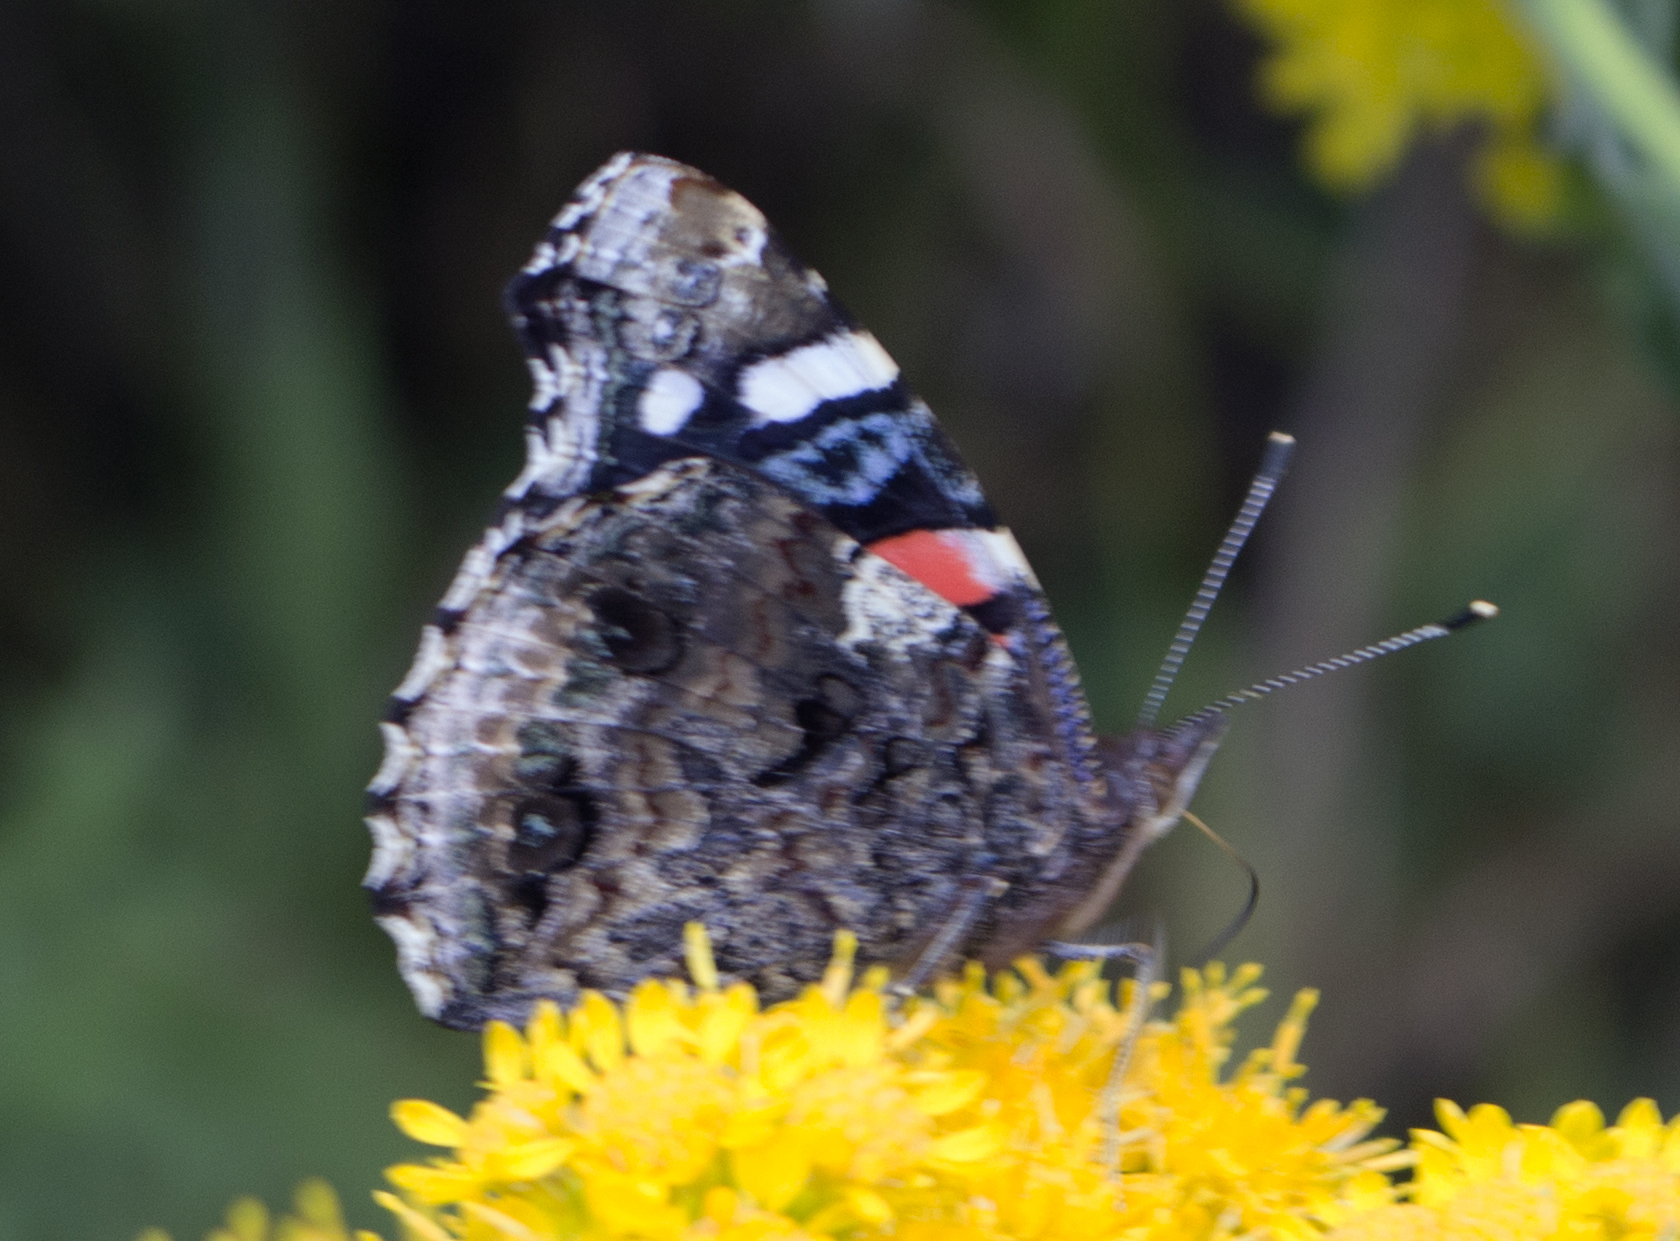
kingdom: Animalia
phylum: Arthropoda
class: Insecta
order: Lepidoptera
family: Nymphalidae
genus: Vanessa
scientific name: Vanessa atalanta
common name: Red admiral
